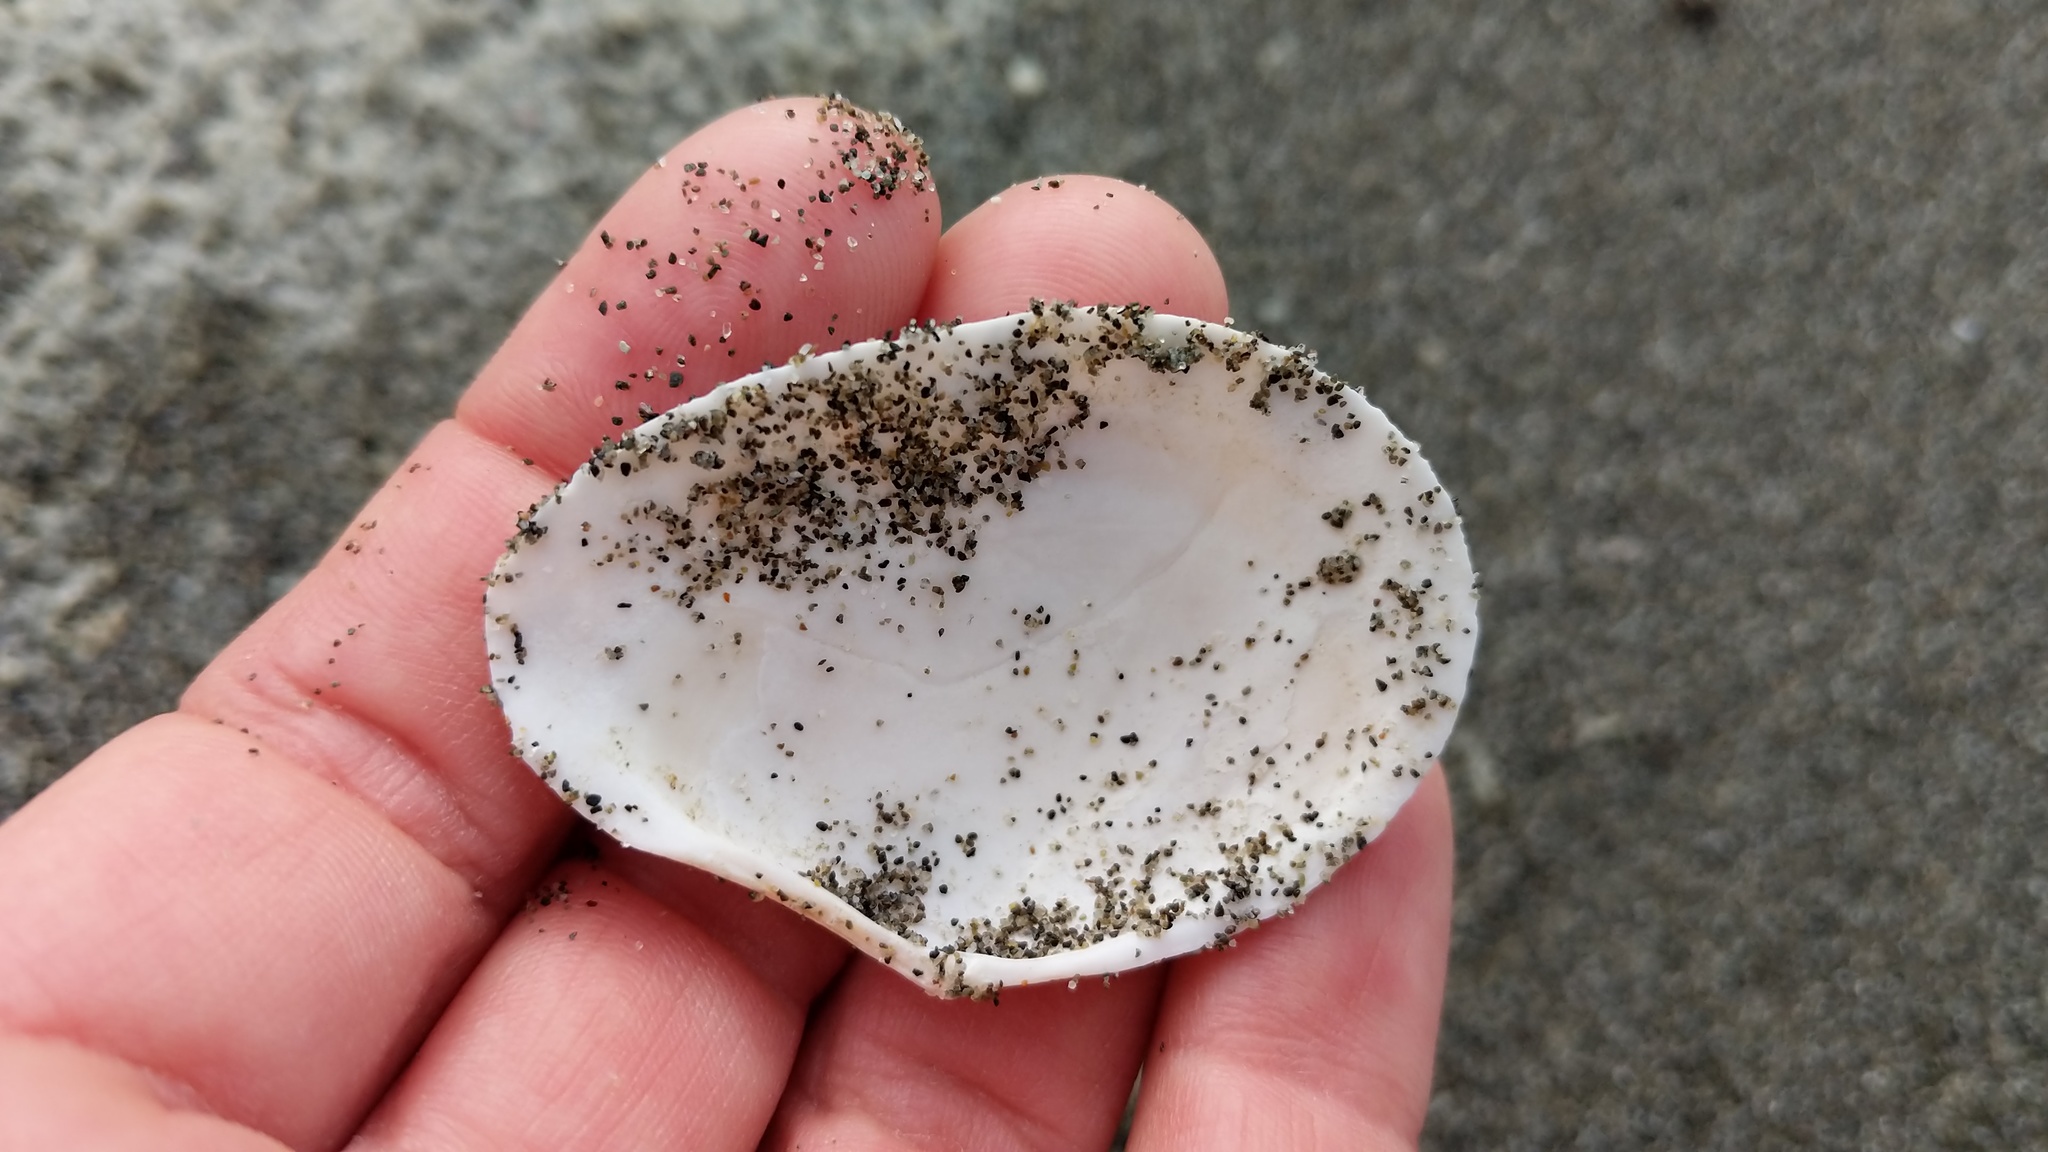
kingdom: Animalia
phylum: Mollusca
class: Bivalvia
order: Cardiida
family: Tellinidae
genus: Macoma
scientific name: Macoma nasuta
